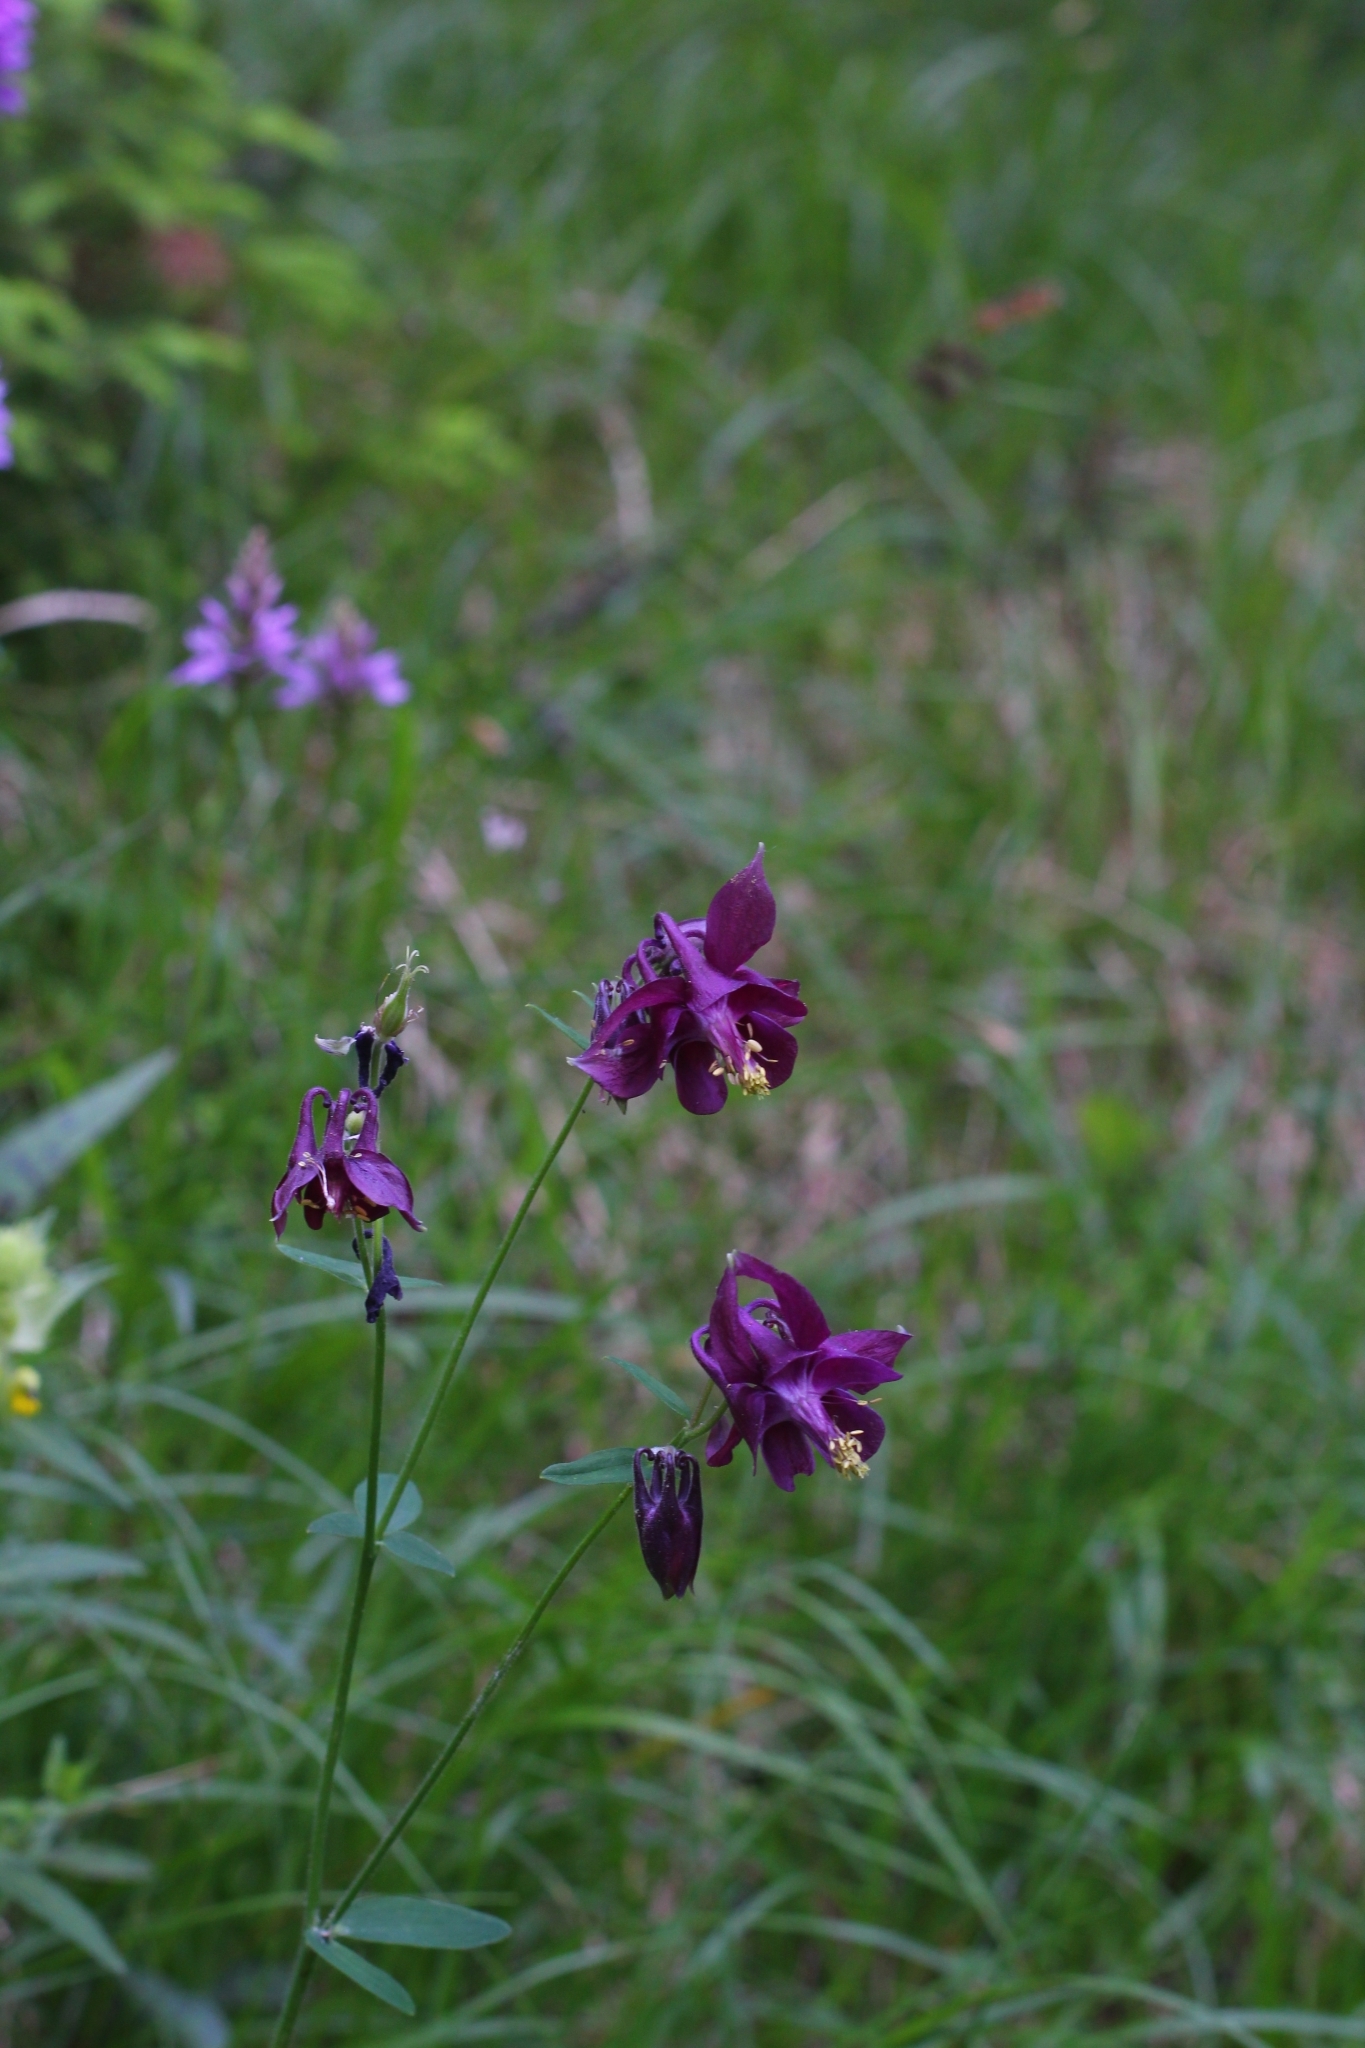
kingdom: Plantae
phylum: Tracheophyta
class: Magnoliopsida
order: Ranunculales
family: Ranunculaceae
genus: Aquilegia
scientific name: Aquilegia atrata
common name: Dark columbine
